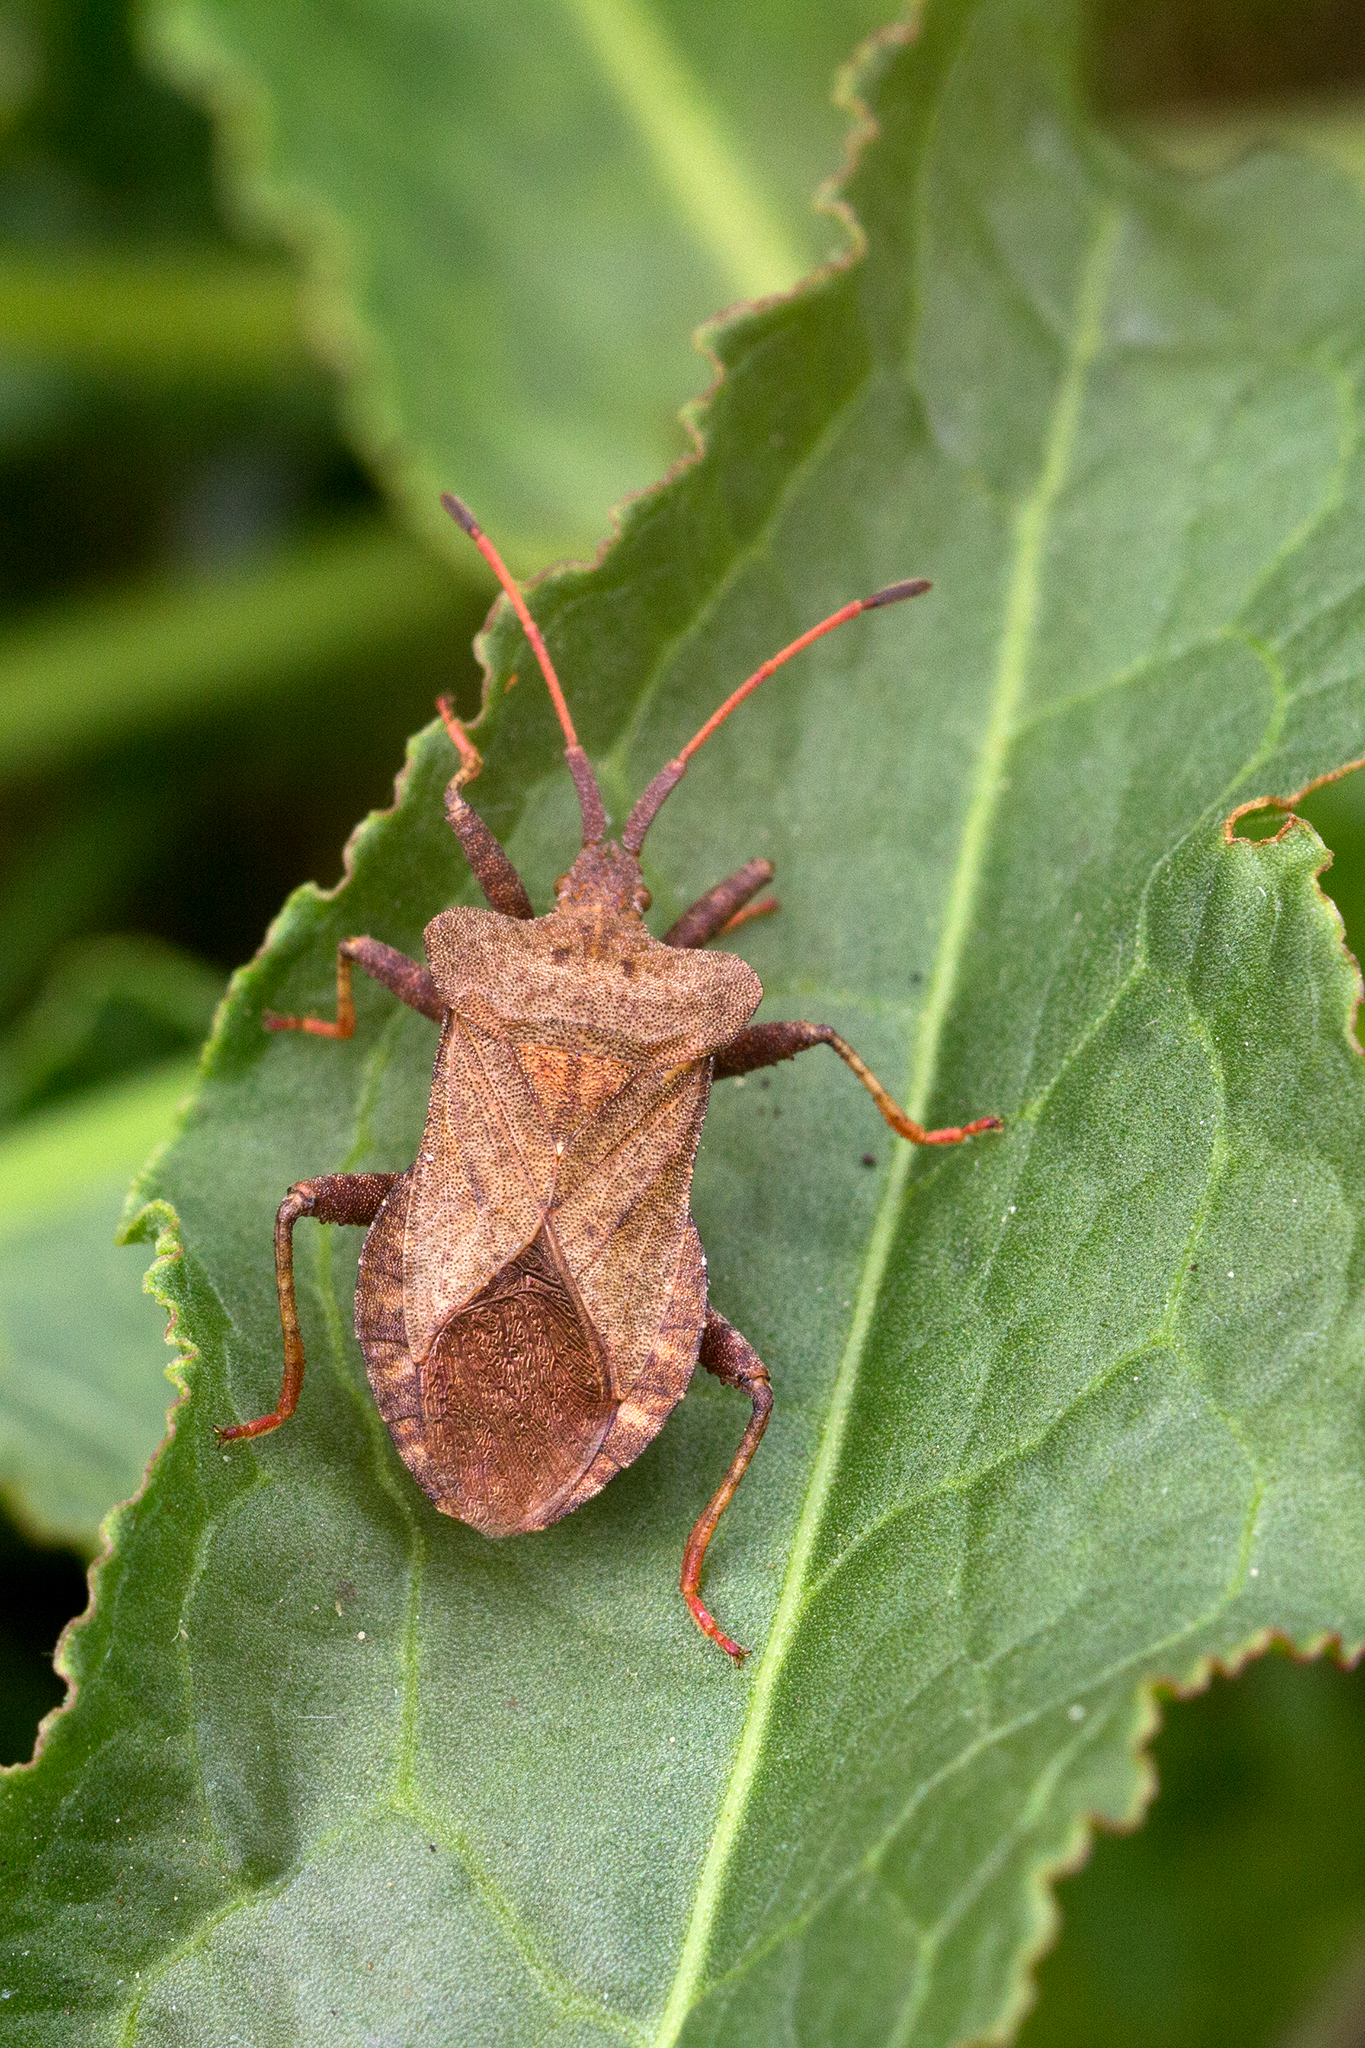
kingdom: Animalia
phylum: Arthropoda
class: Insecta
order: Hemiptera
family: Coreidae
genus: Coreus
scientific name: Coreus marginatus
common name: Dock bug
